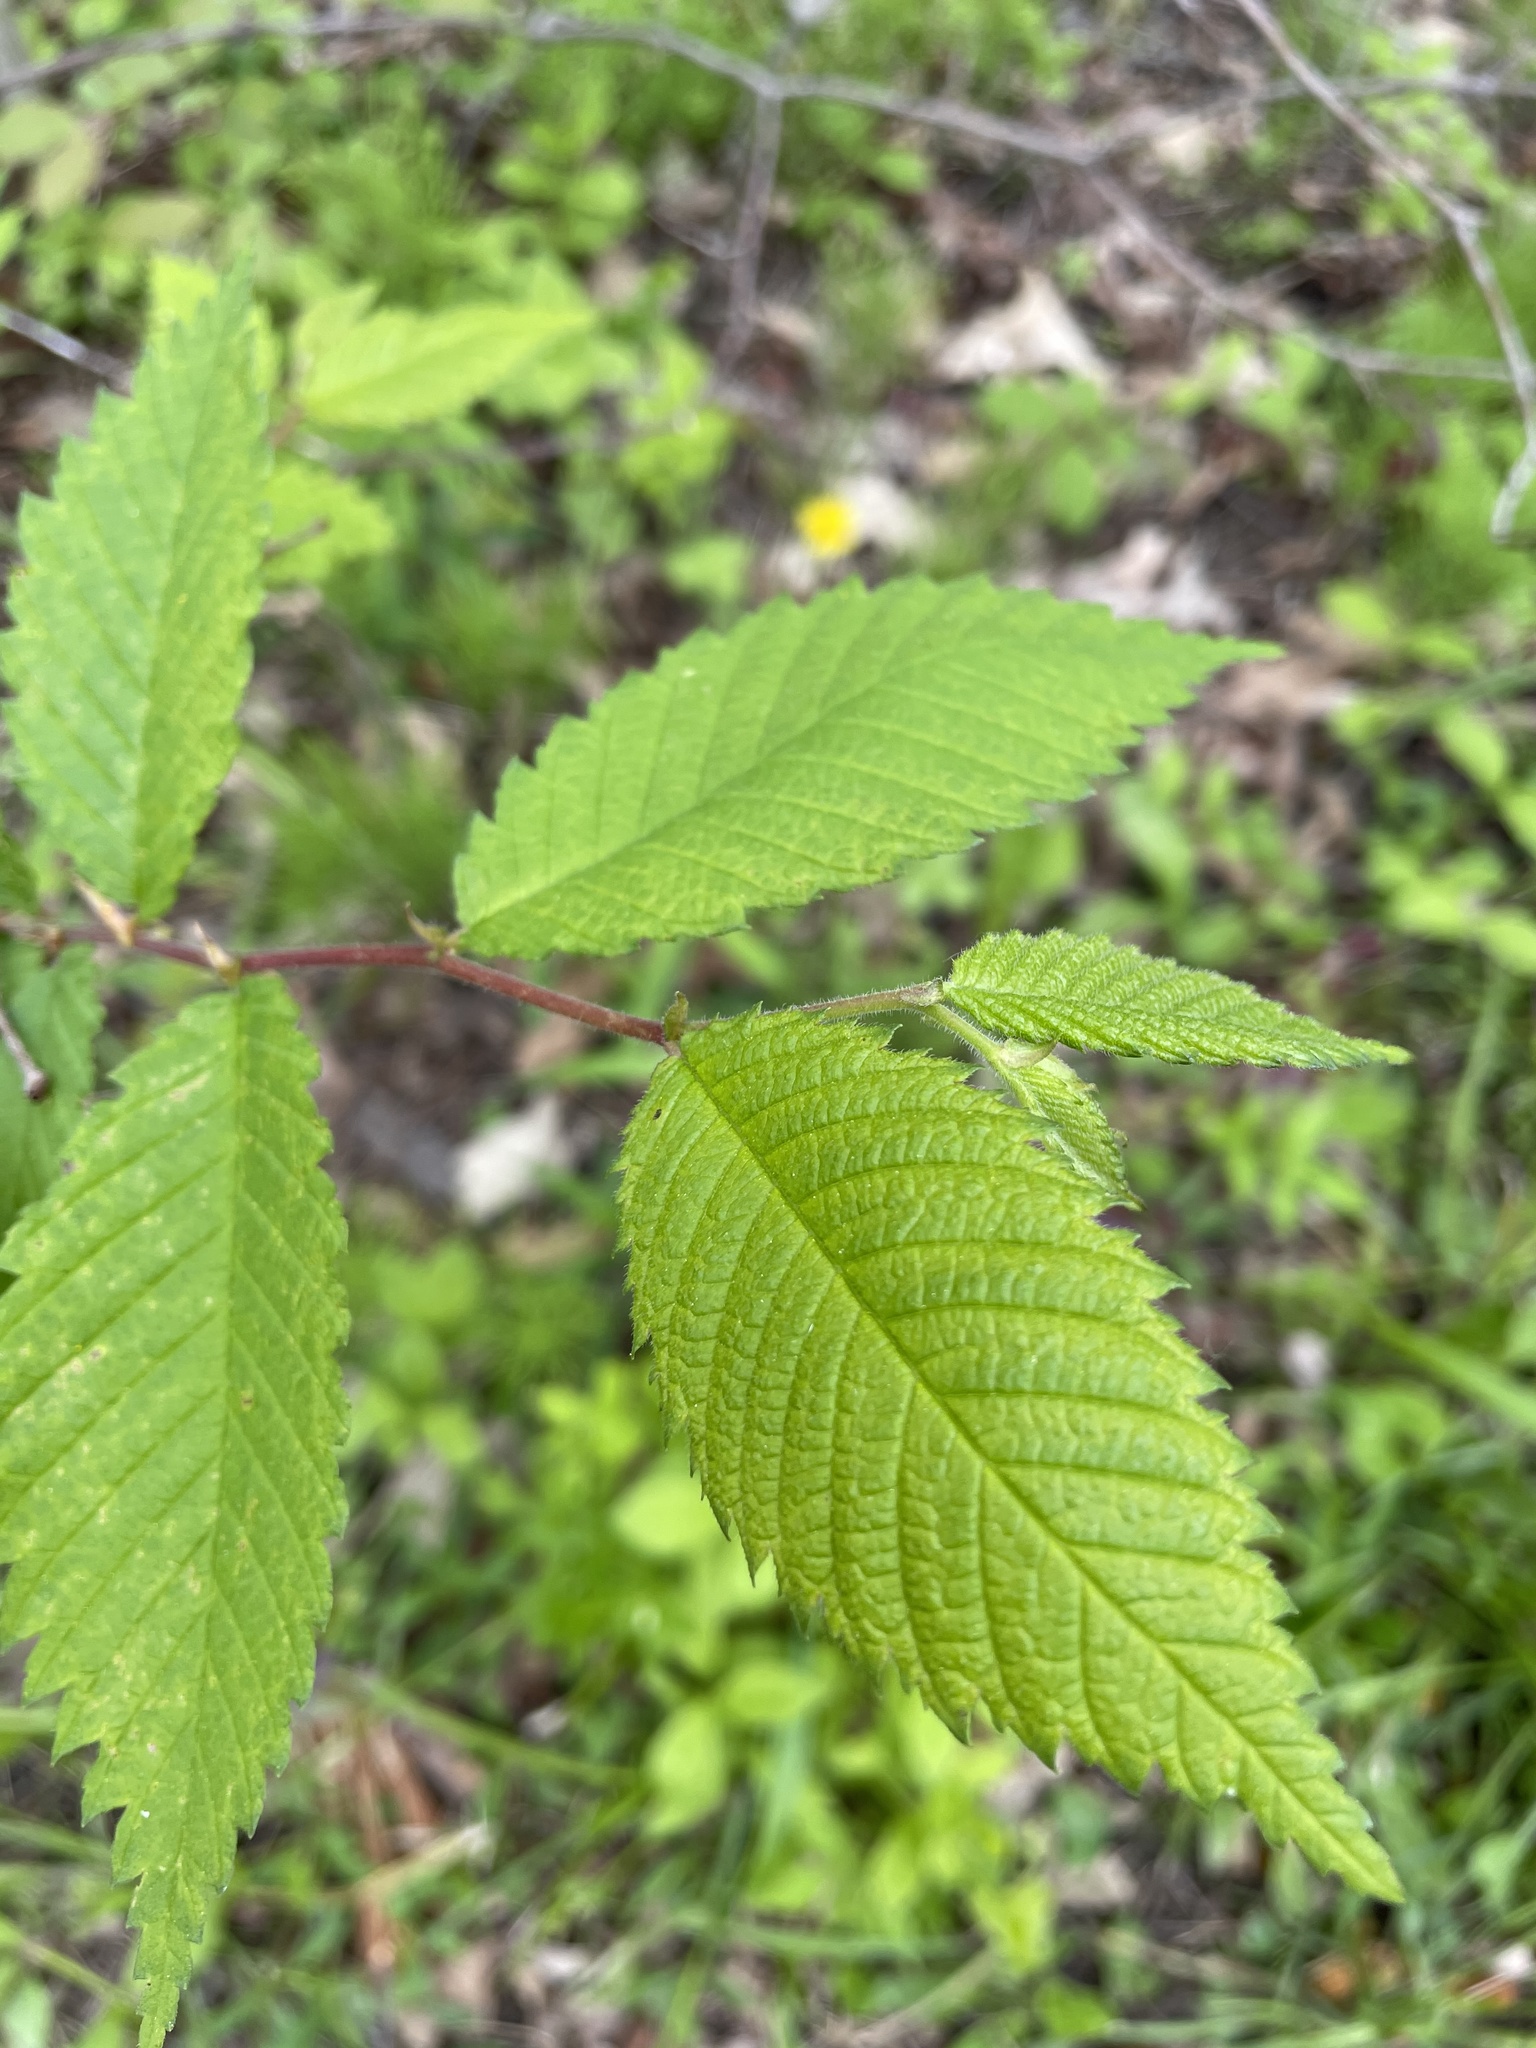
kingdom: Plantae
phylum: Tracheophyta
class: Magnoliopsida
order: Rosales
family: Ulmaceae
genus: Ulmus
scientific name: Ulmus americana
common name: American elm
